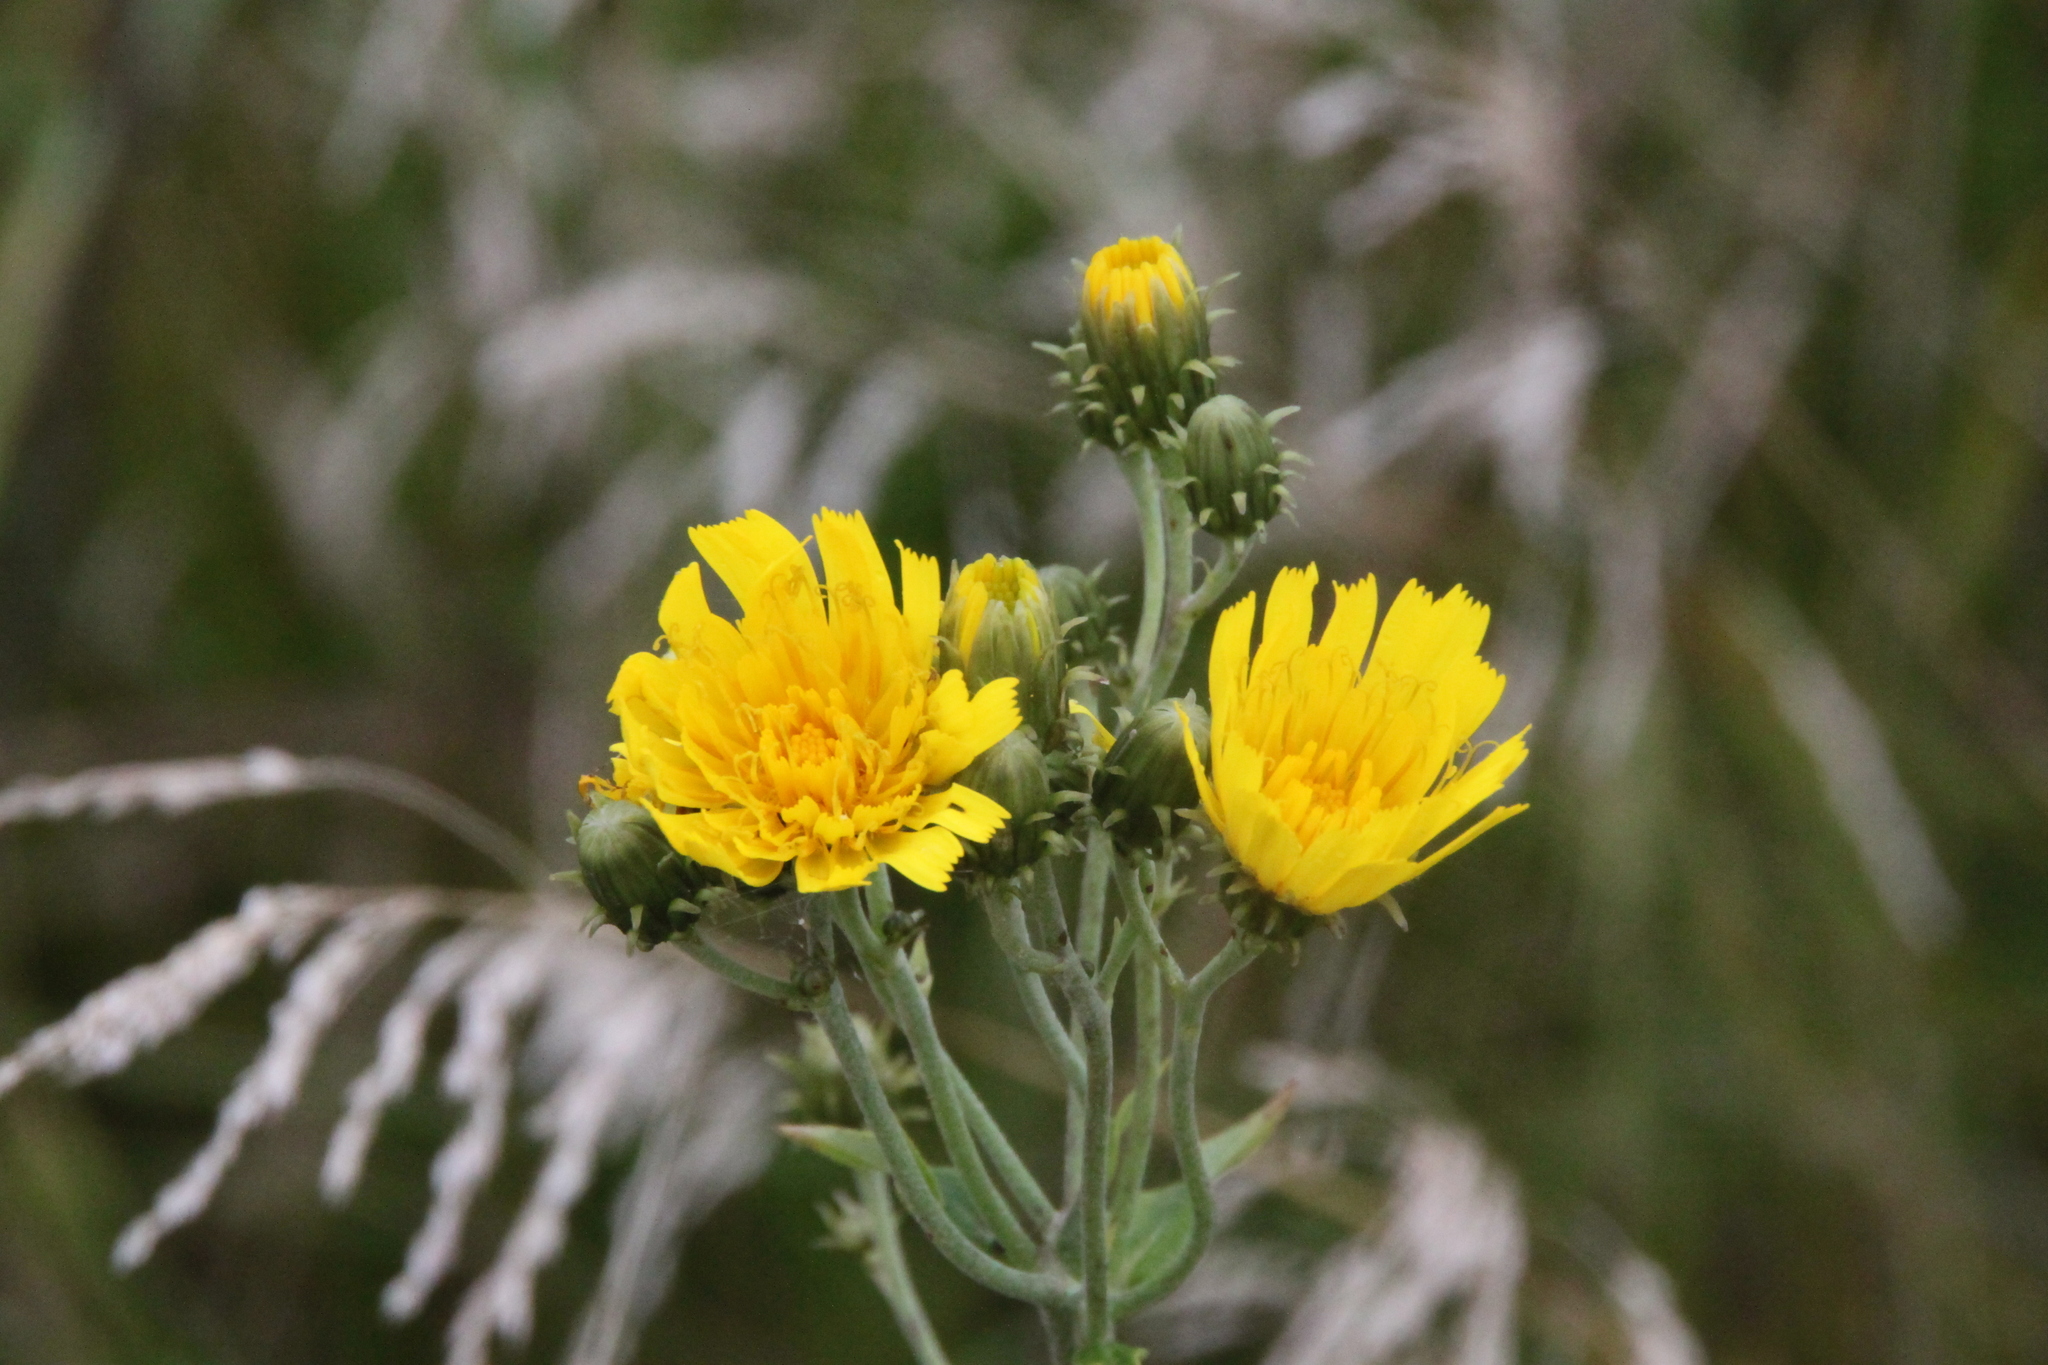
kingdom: Plantae
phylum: Tracheophyta
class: Magnoliopsida
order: Asterales
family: Asteraceae
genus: Hieracium
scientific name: Hieracium umbellatum
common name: Northern hawkweed
